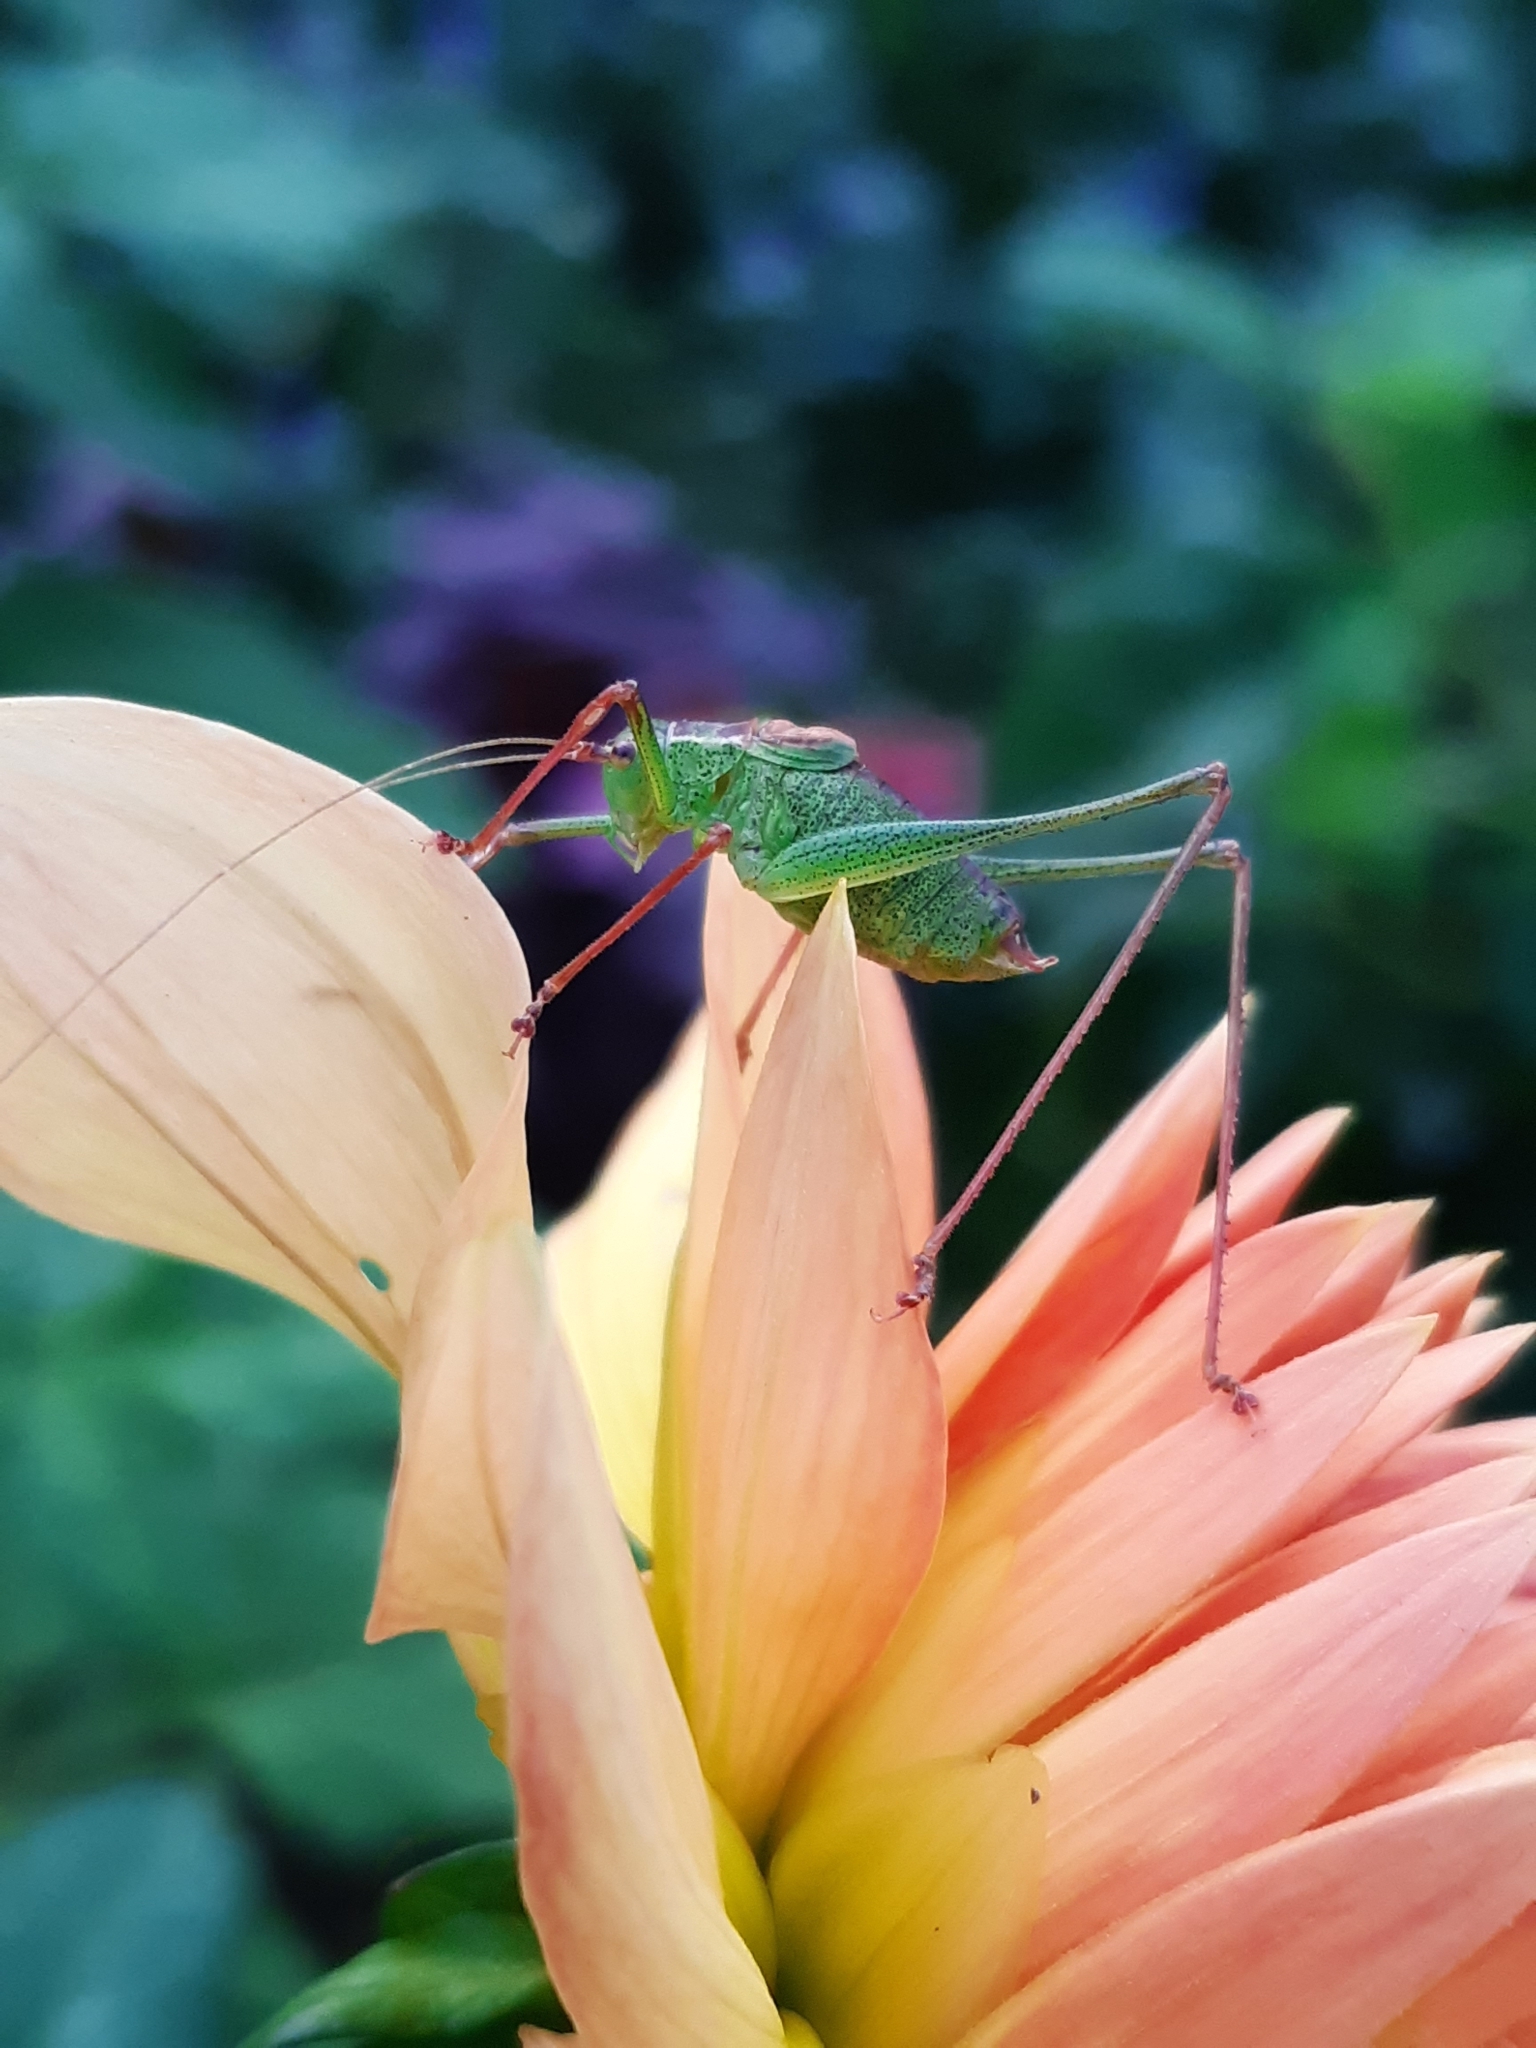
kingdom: Animalia
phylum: Arthropoda
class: Insecta
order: Orthoptera
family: Tettigoniidae
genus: Leptophyes
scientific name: Leptophyes punctatissima
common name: Speckled bush-cricket
